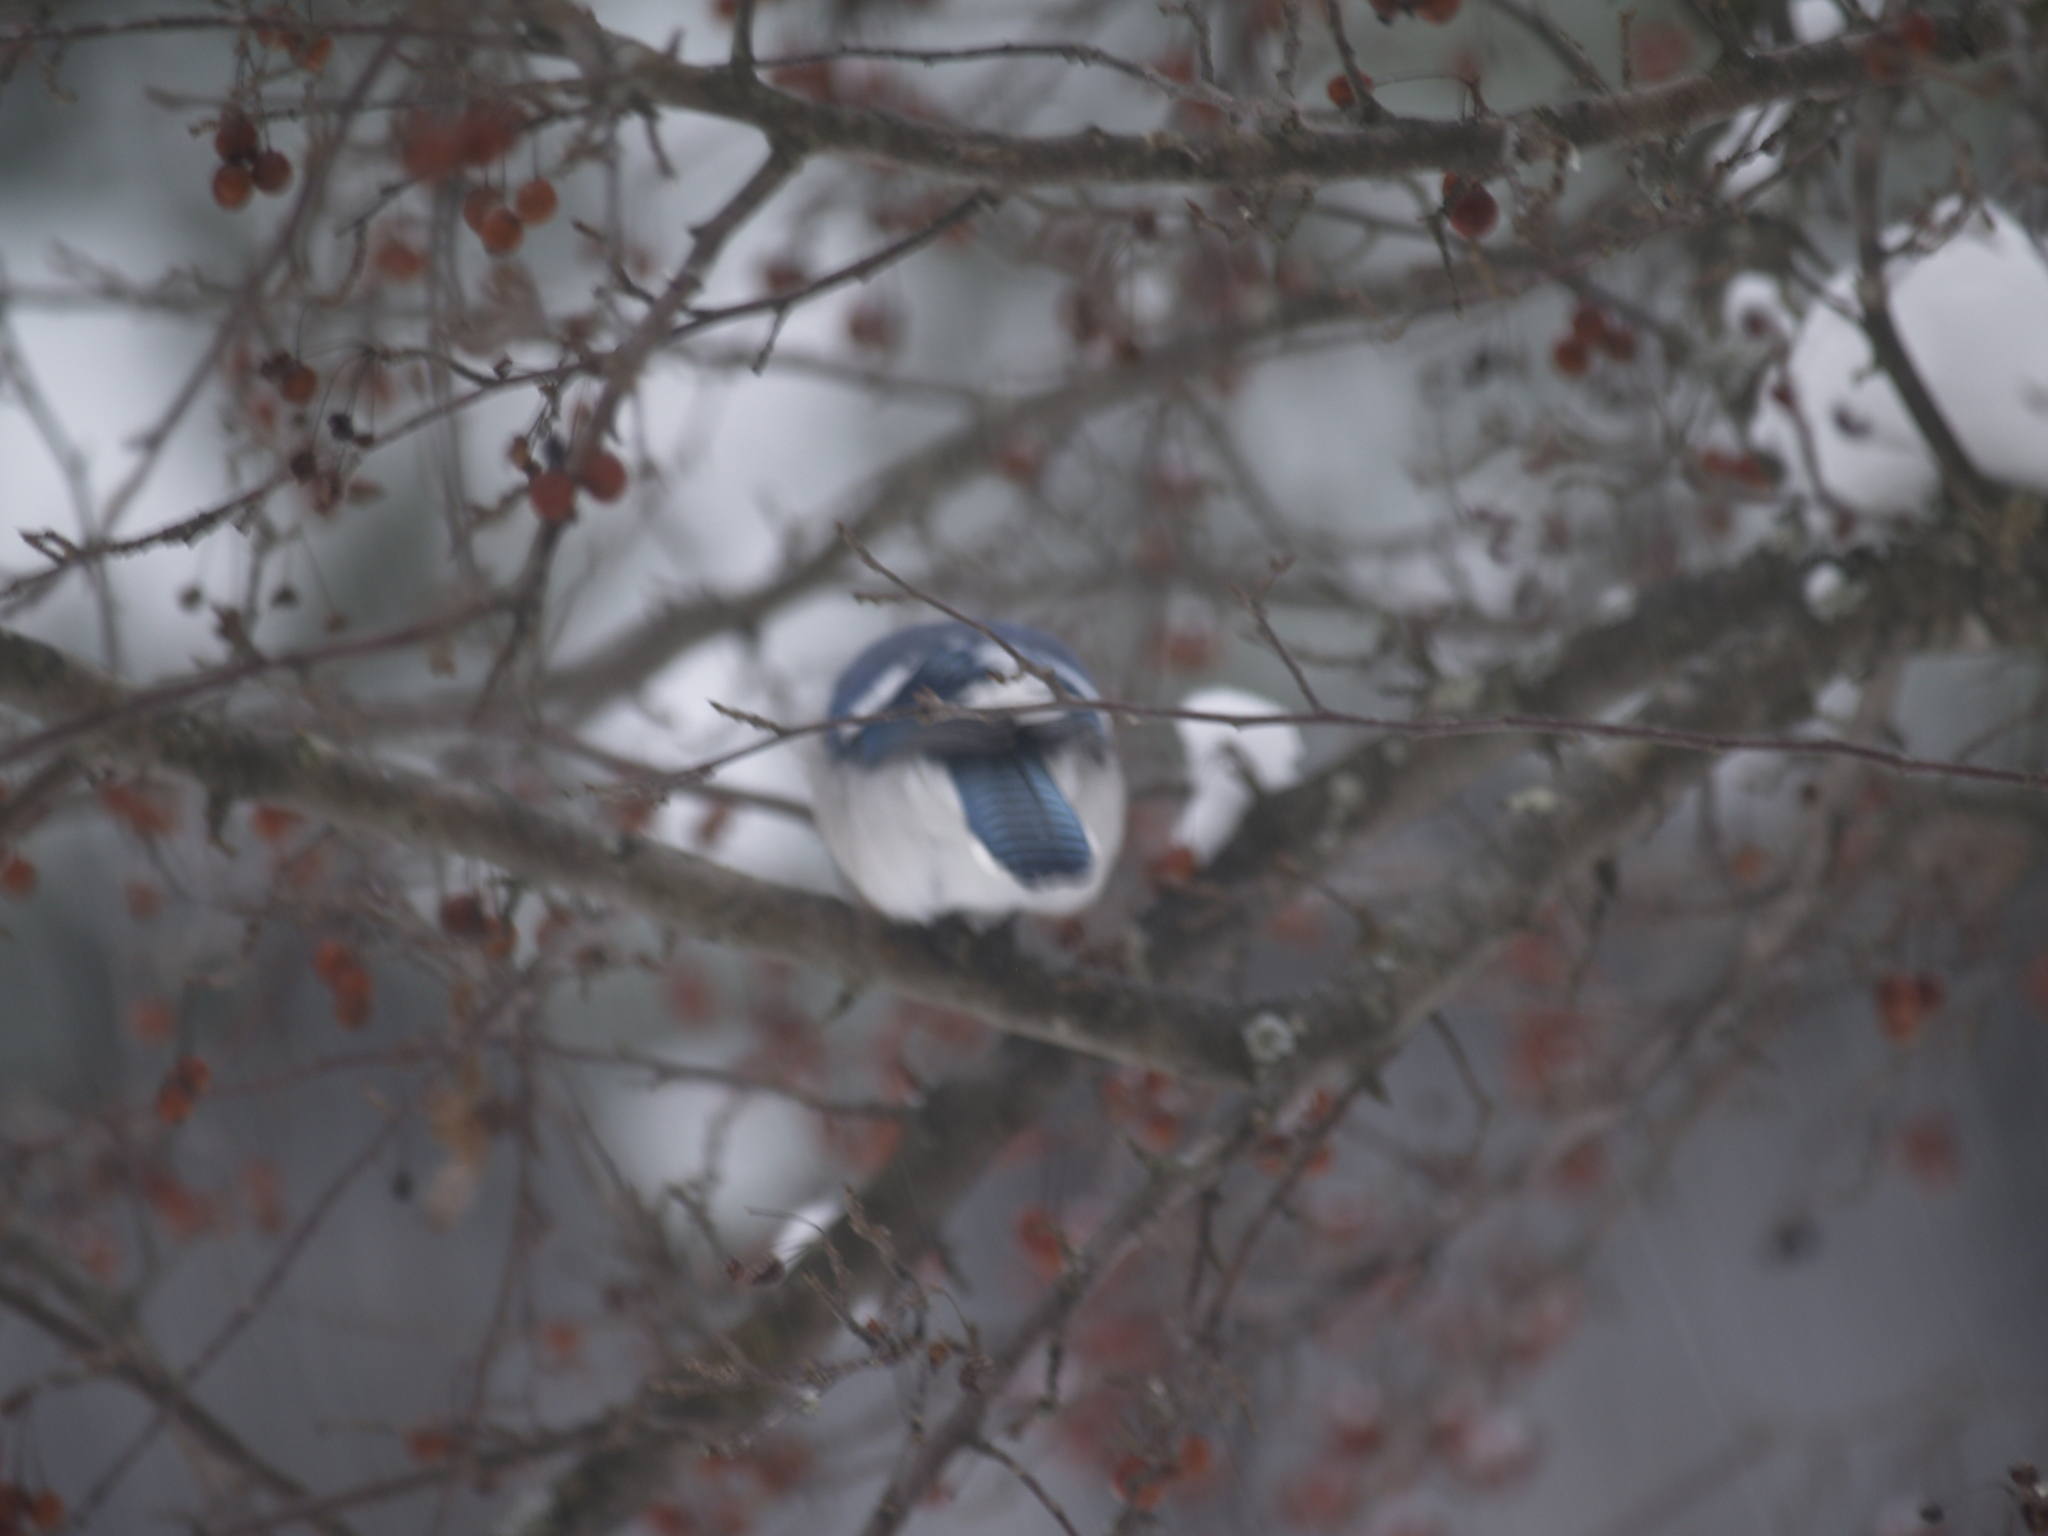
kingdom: Animalia
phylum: Chordata
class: Aves
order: Passeriformes
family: Corvidae
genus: Cyanocitta
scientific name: Cyanocitta cristata
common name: Blue jay
